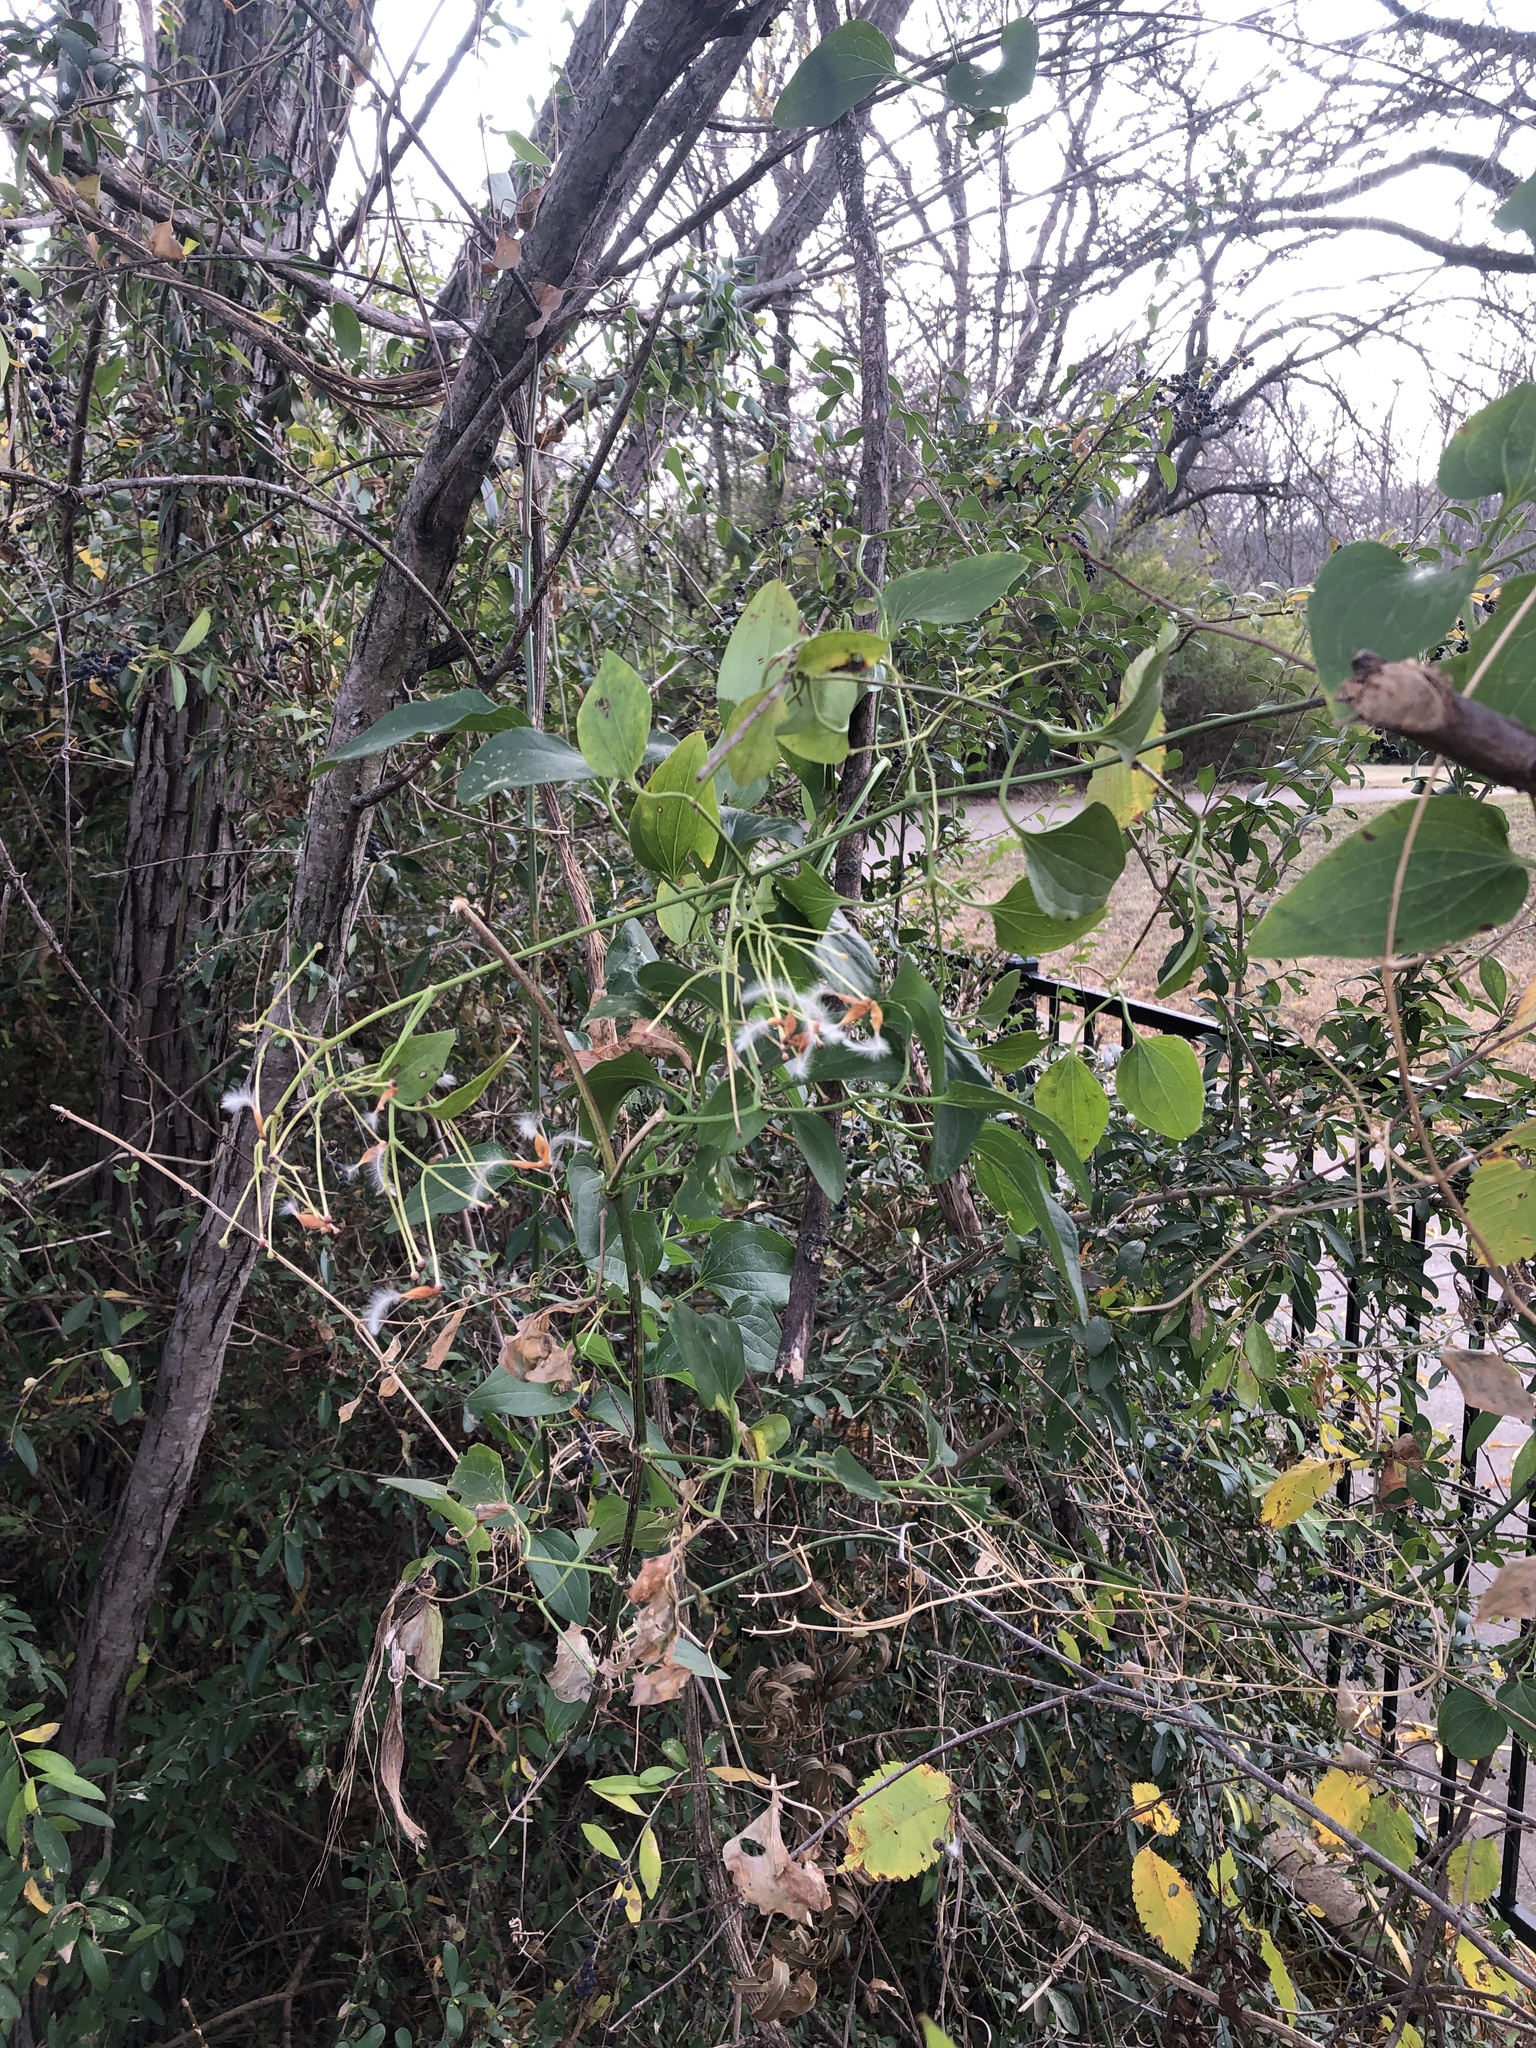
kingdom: Plantae
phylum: Tracheophyta
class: Magnoliopsida
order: Ranunculales
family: Ranunculaceae
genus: Clematis
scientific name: Clematis terniflora
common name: Sweet autumn clematis
